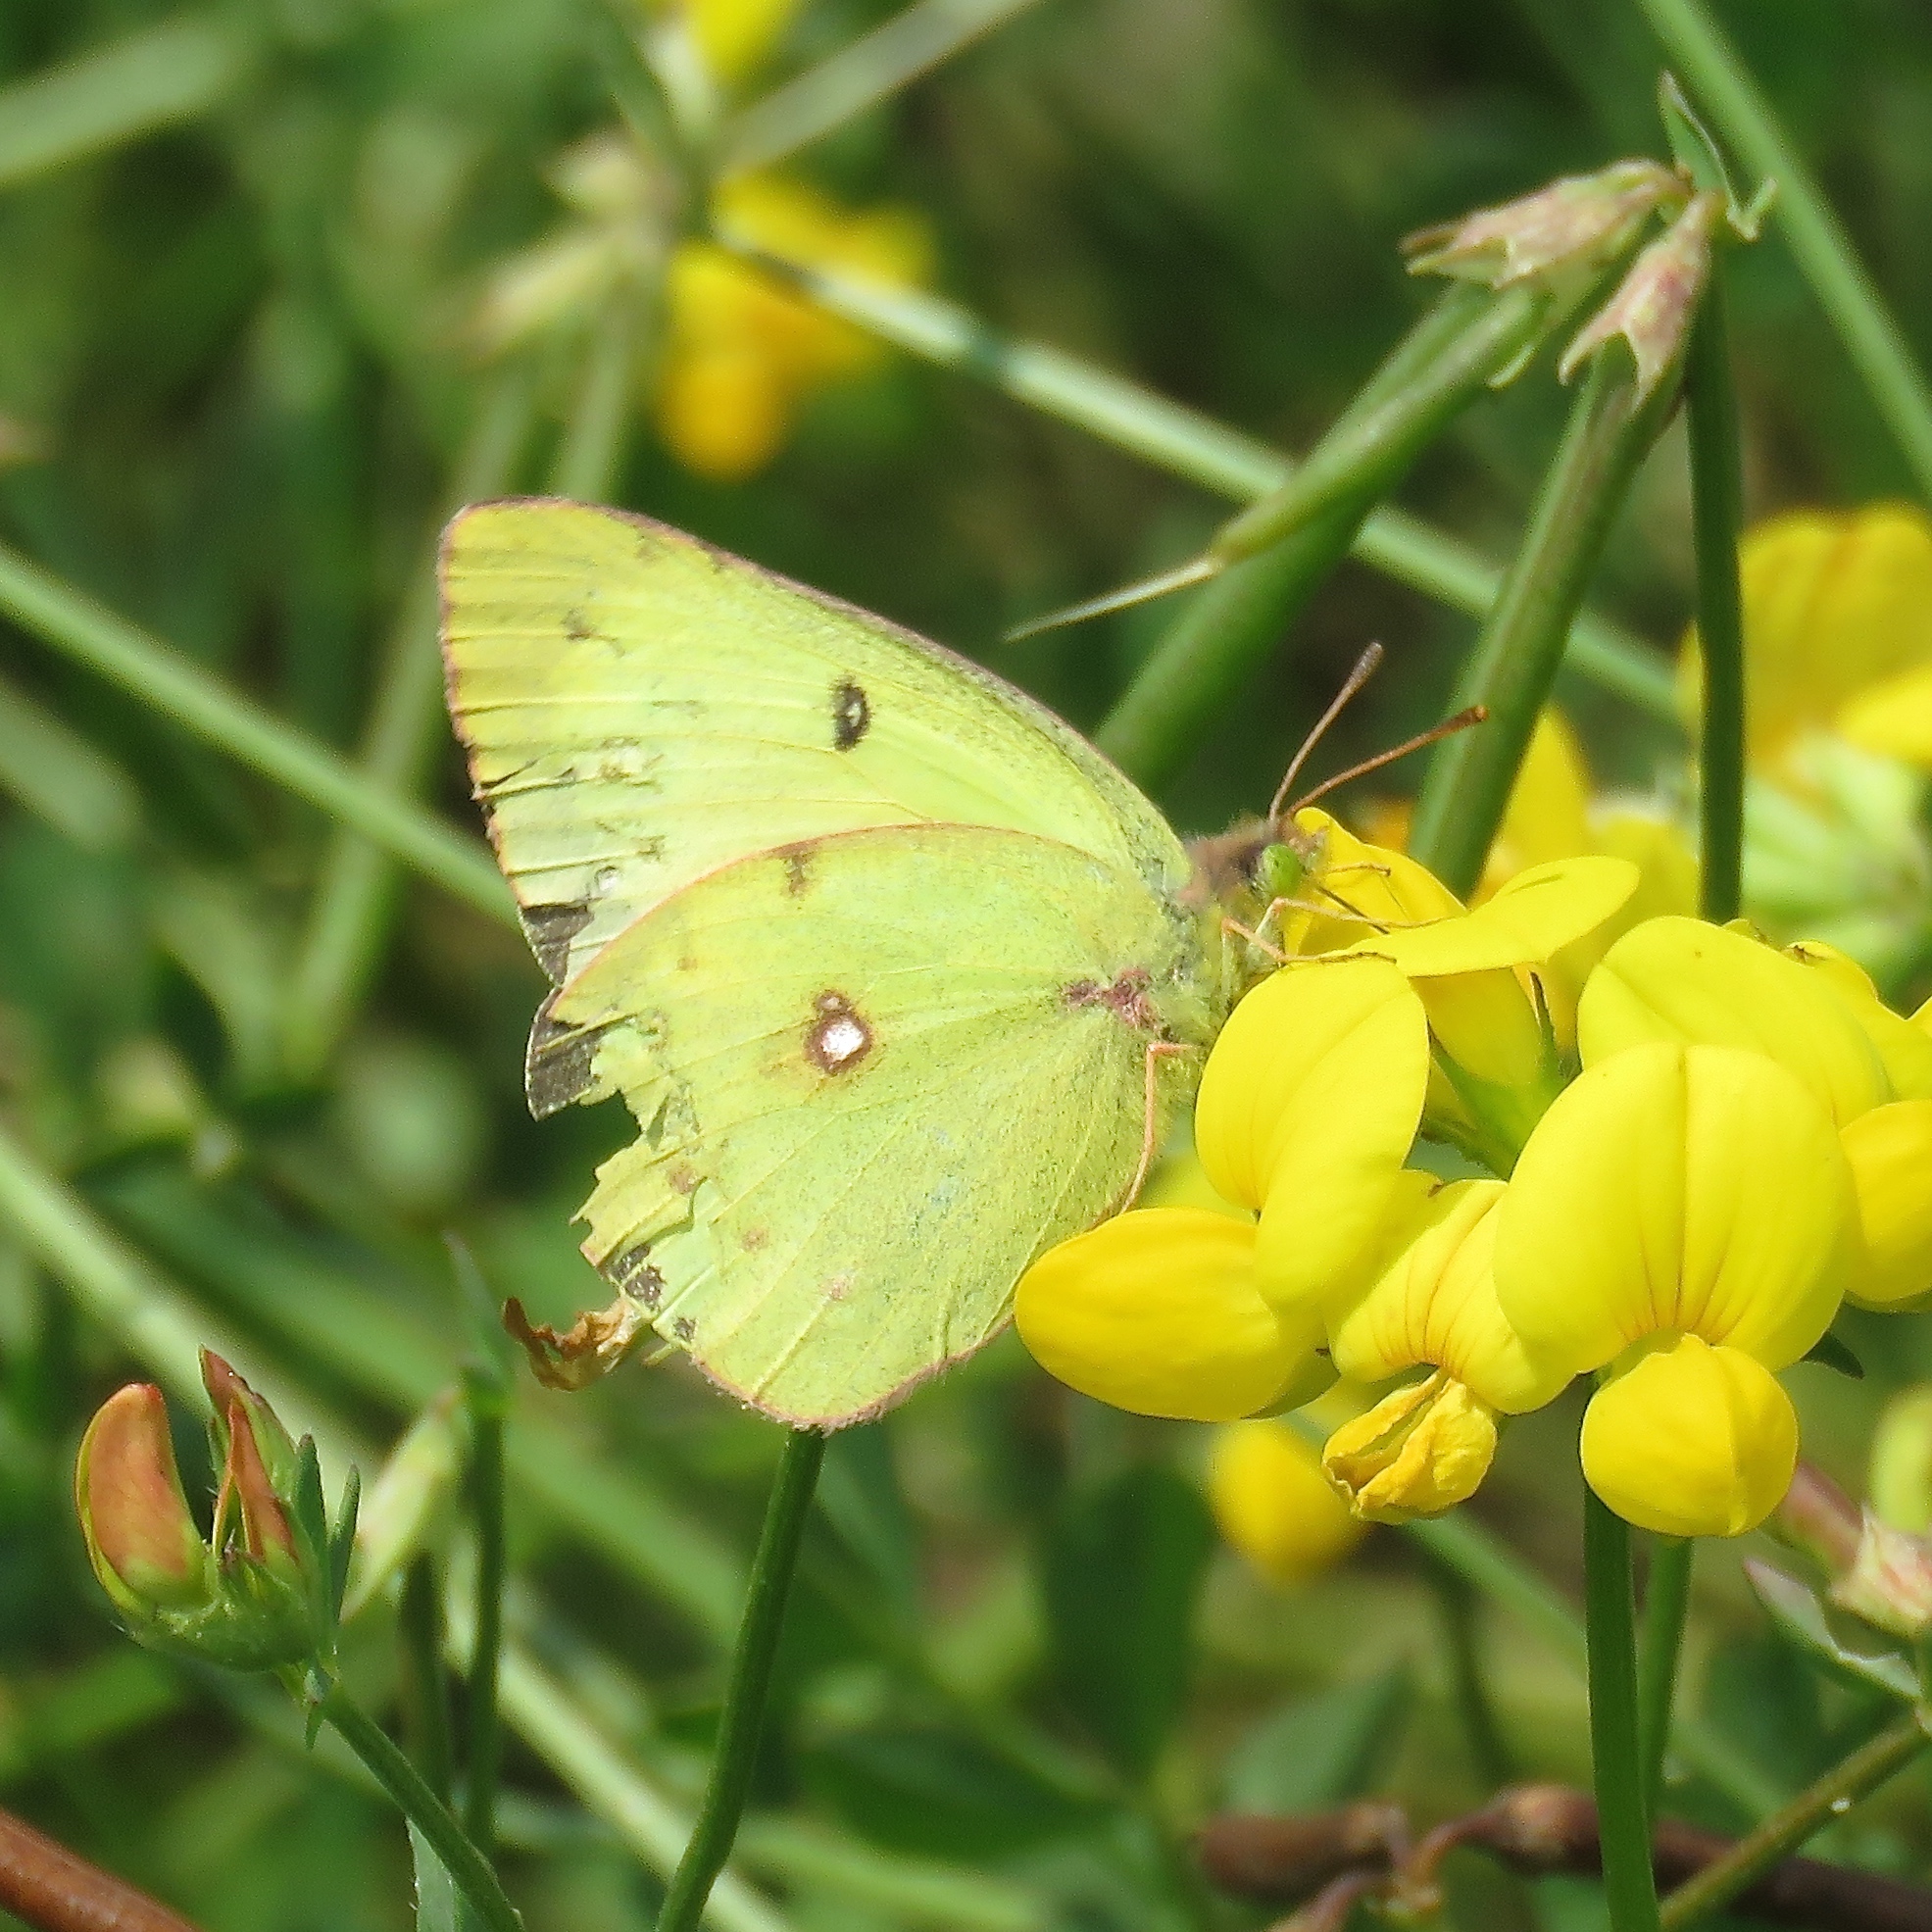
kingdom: Animalia
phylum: Arthropoda
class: Insecta
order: Lepidoptera
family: Pieridae
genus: Colias
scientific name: Colias philodice
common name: Clouded sulphur
